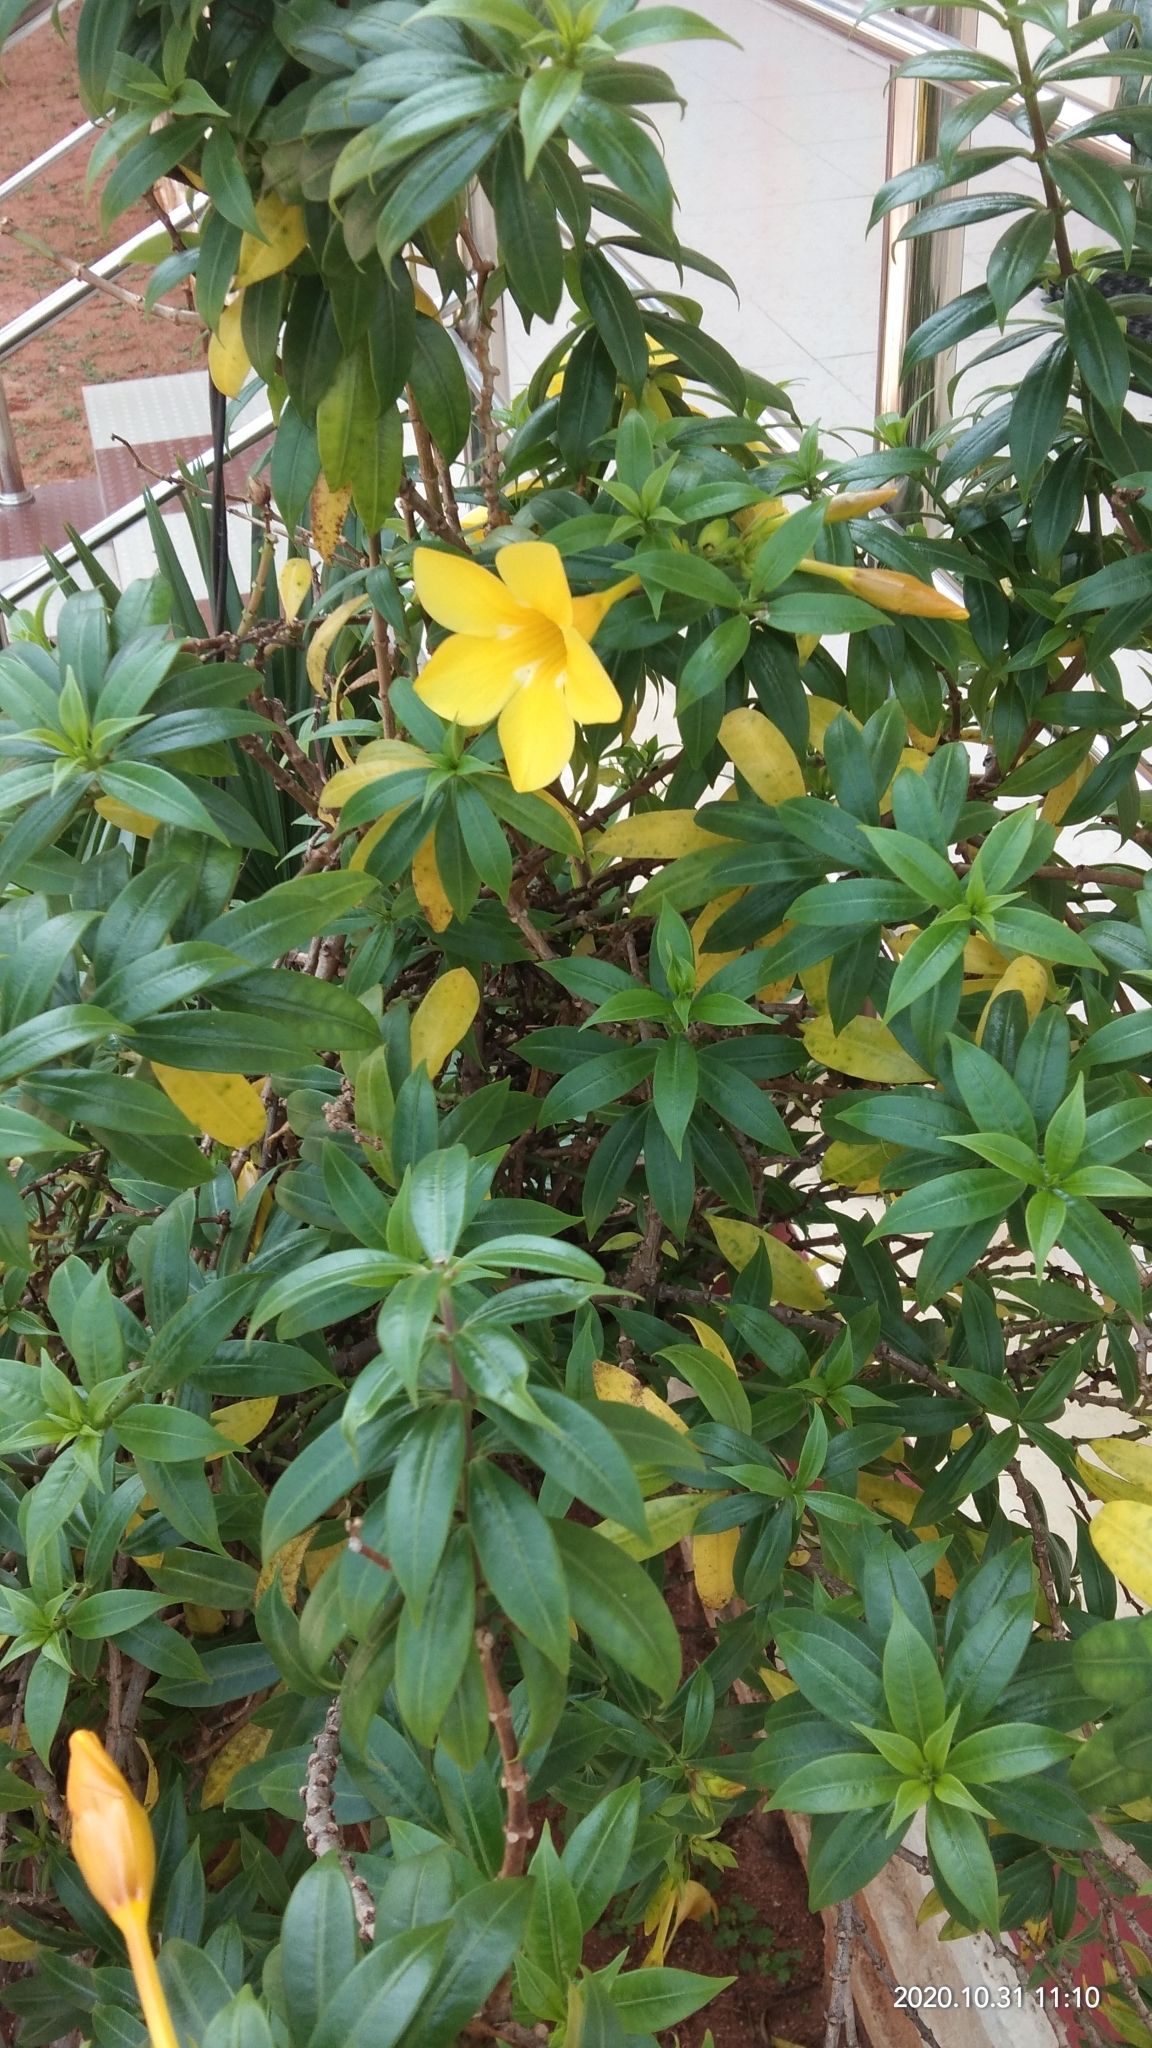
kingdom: Plantae
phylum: Tracheophyta
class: Magnoliopsida
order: Gentianales
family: Apocynaceae
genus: Allamanda
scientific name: Allamanda schottii
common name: Bush allamanda
